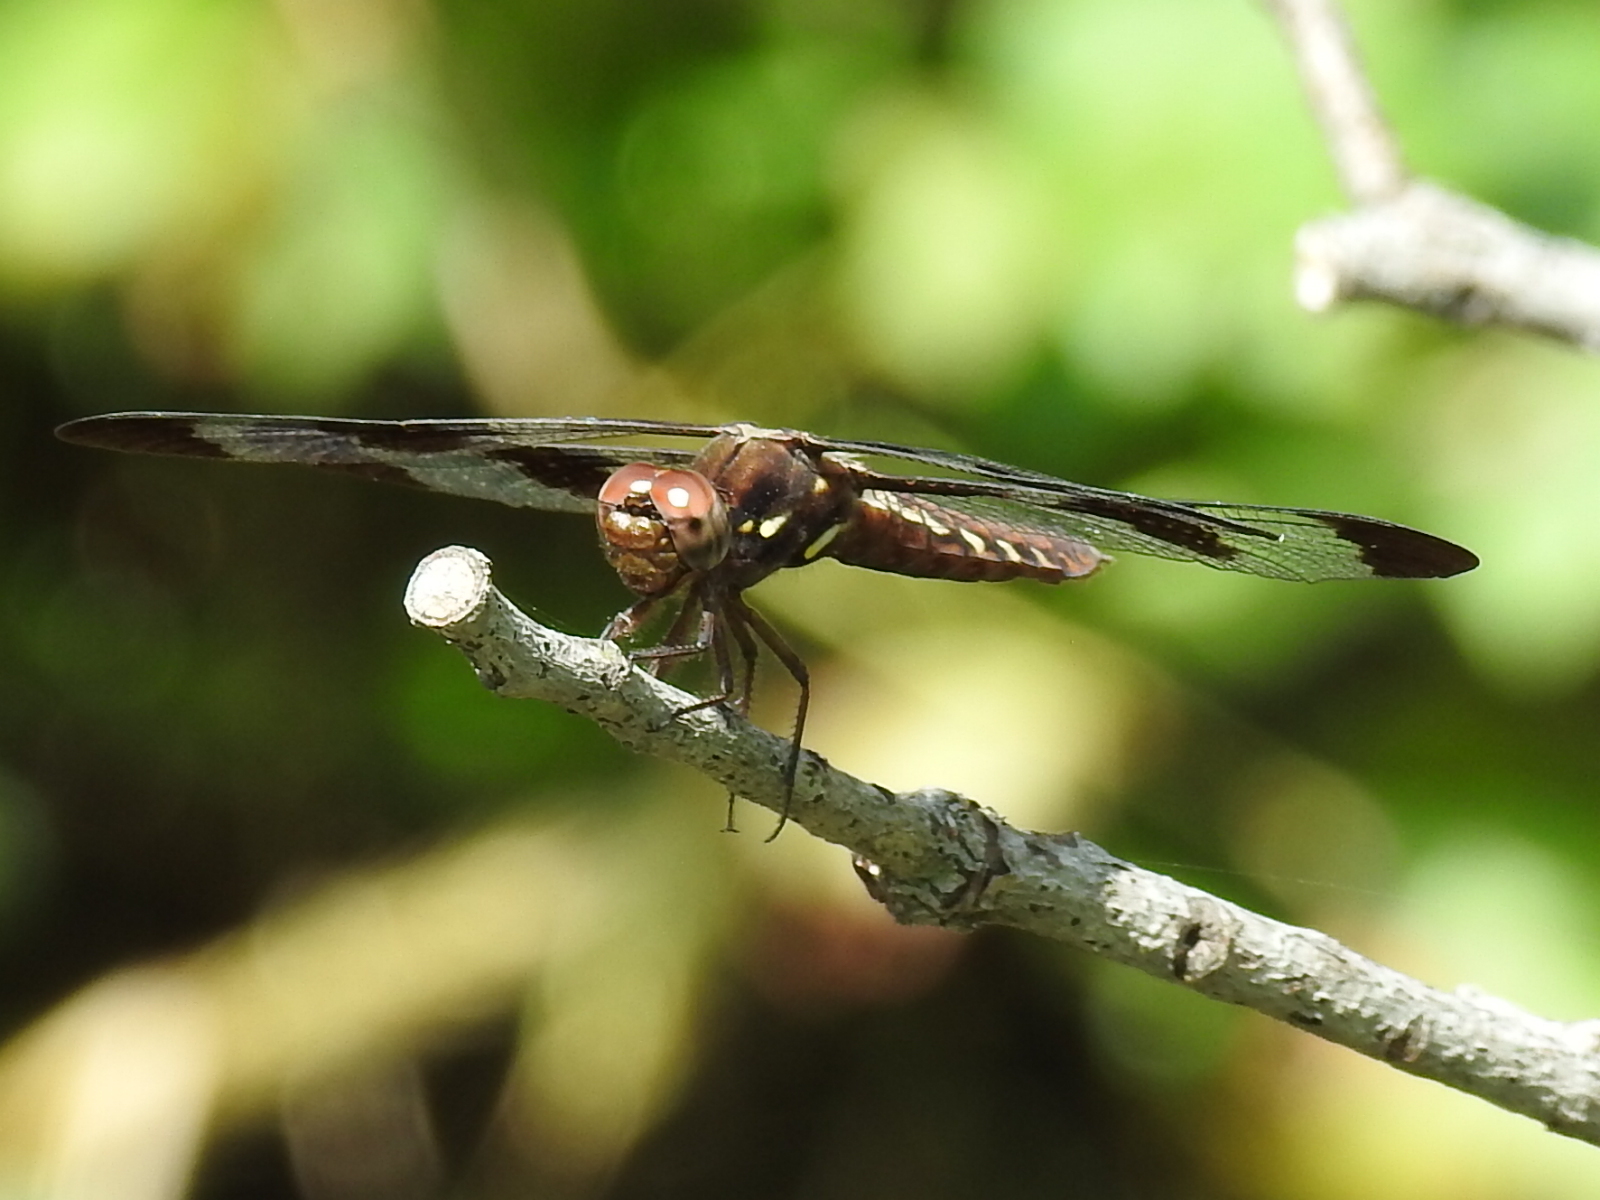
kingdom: Animalia
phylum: Arthropoda
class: Insecta
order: Odonata
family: Libellulidae
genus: Plathemis
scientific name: Plathemis lydia
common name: Common whitetail
